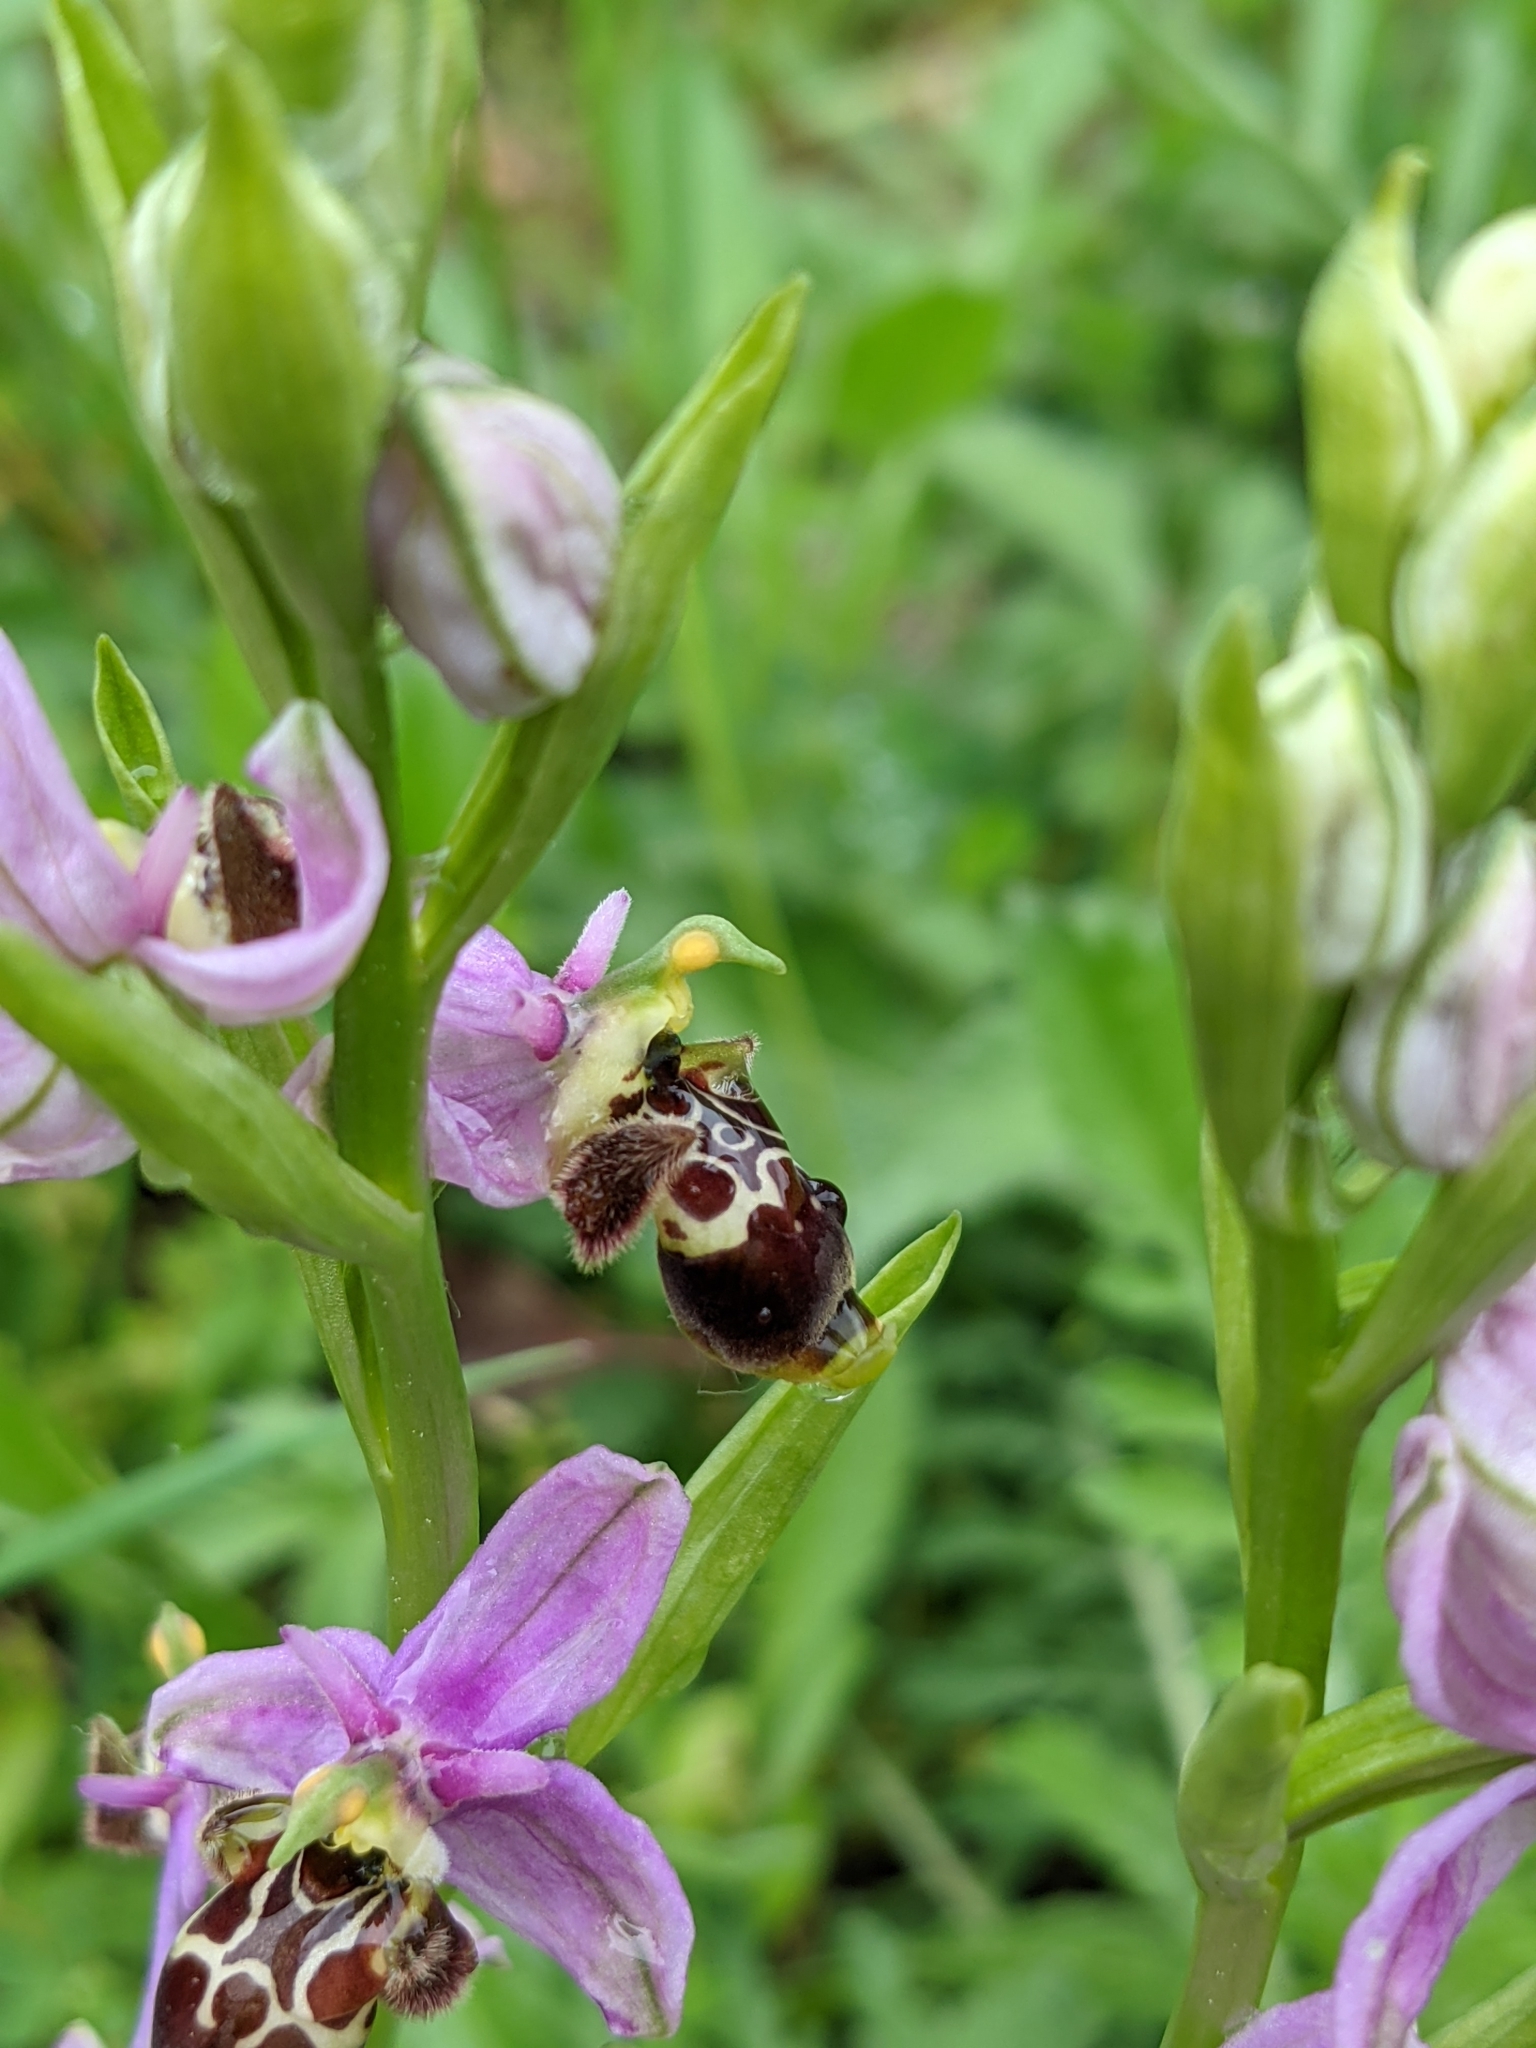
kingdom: Plantae
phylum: Tracheophyta
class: Liliopsida
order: Asparagales
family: Orchidaceae
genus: Ophrys
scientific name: Ophrys scolopax
